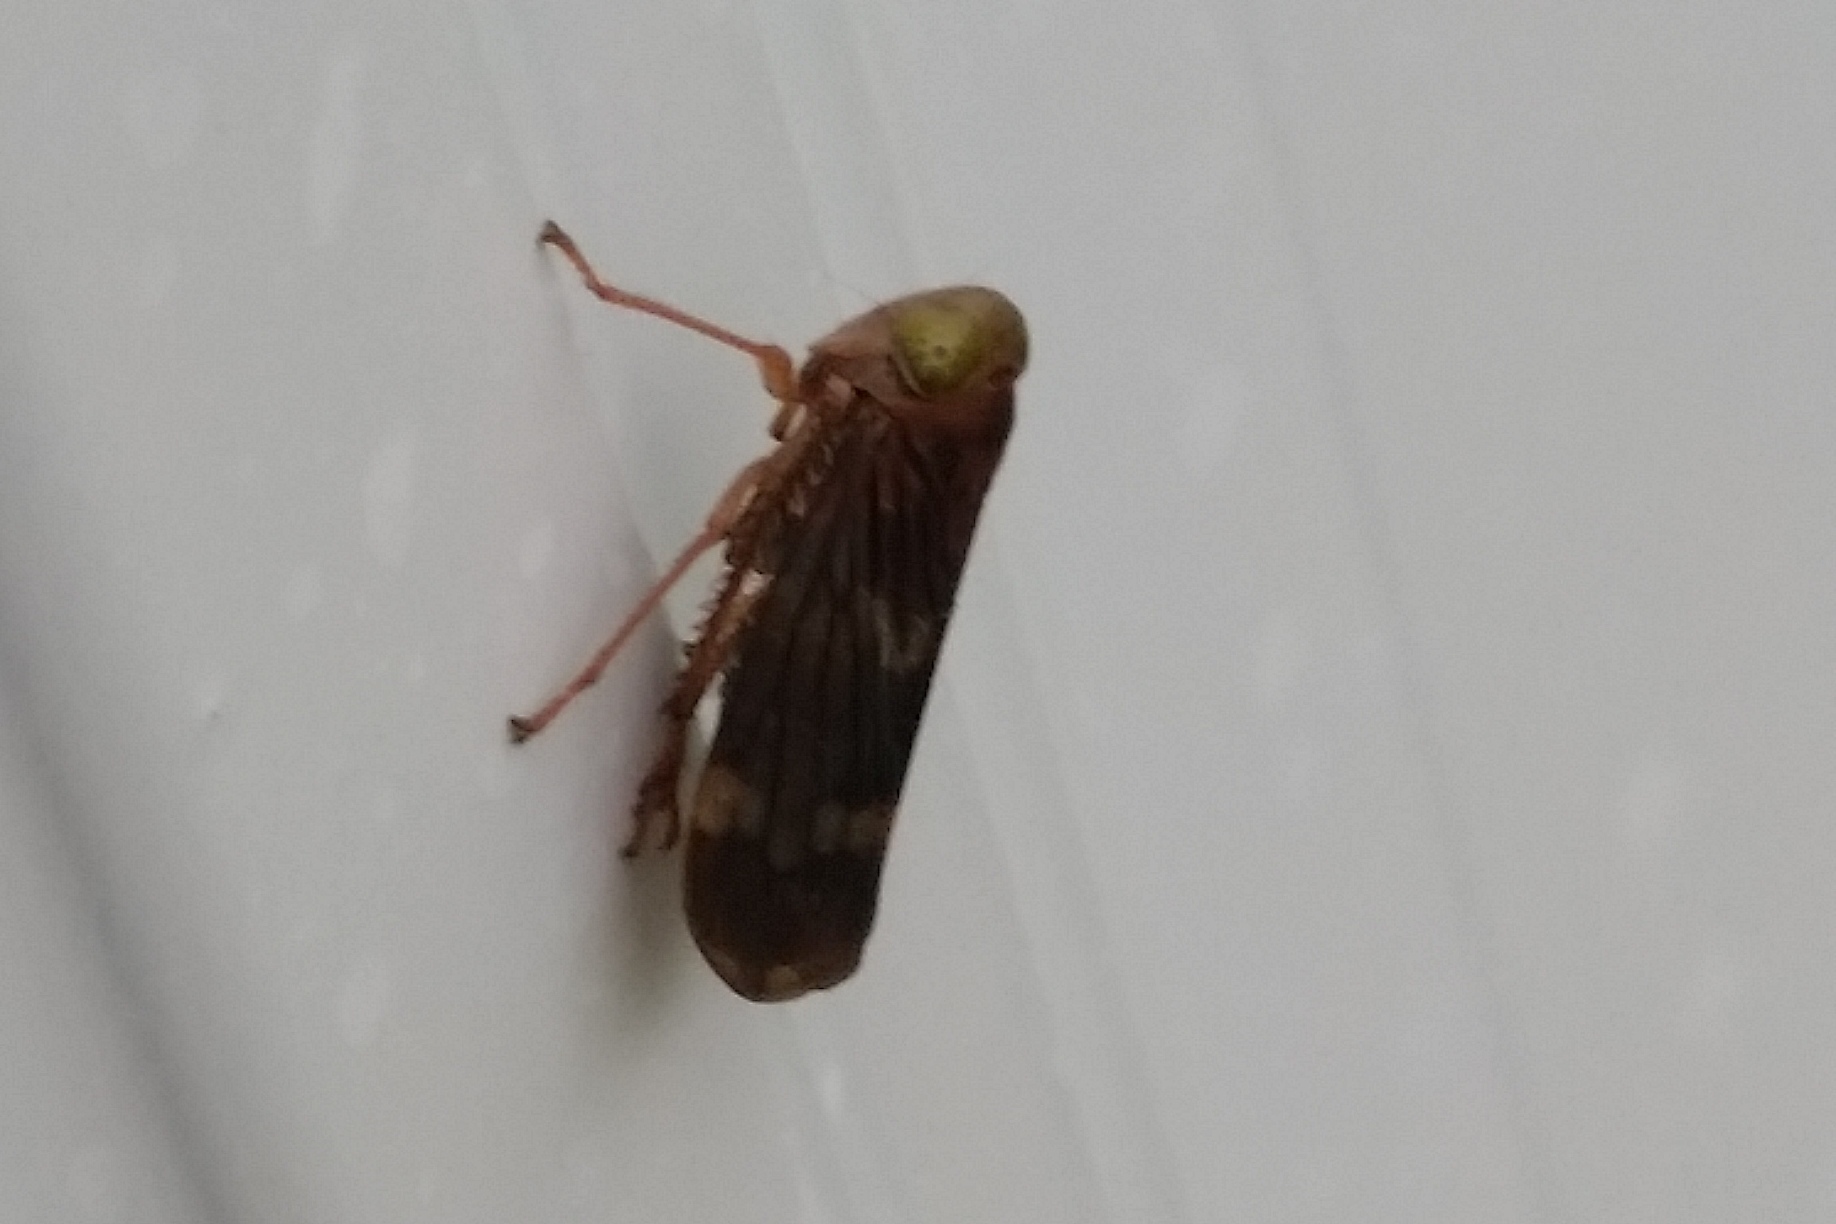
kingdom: Animalia
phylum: Arthropoda
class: Insecta
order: Hemiptera
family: Cicadellidae
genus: Jikradia
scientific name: Jikradia olitoria
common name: Coppery leafhopper
